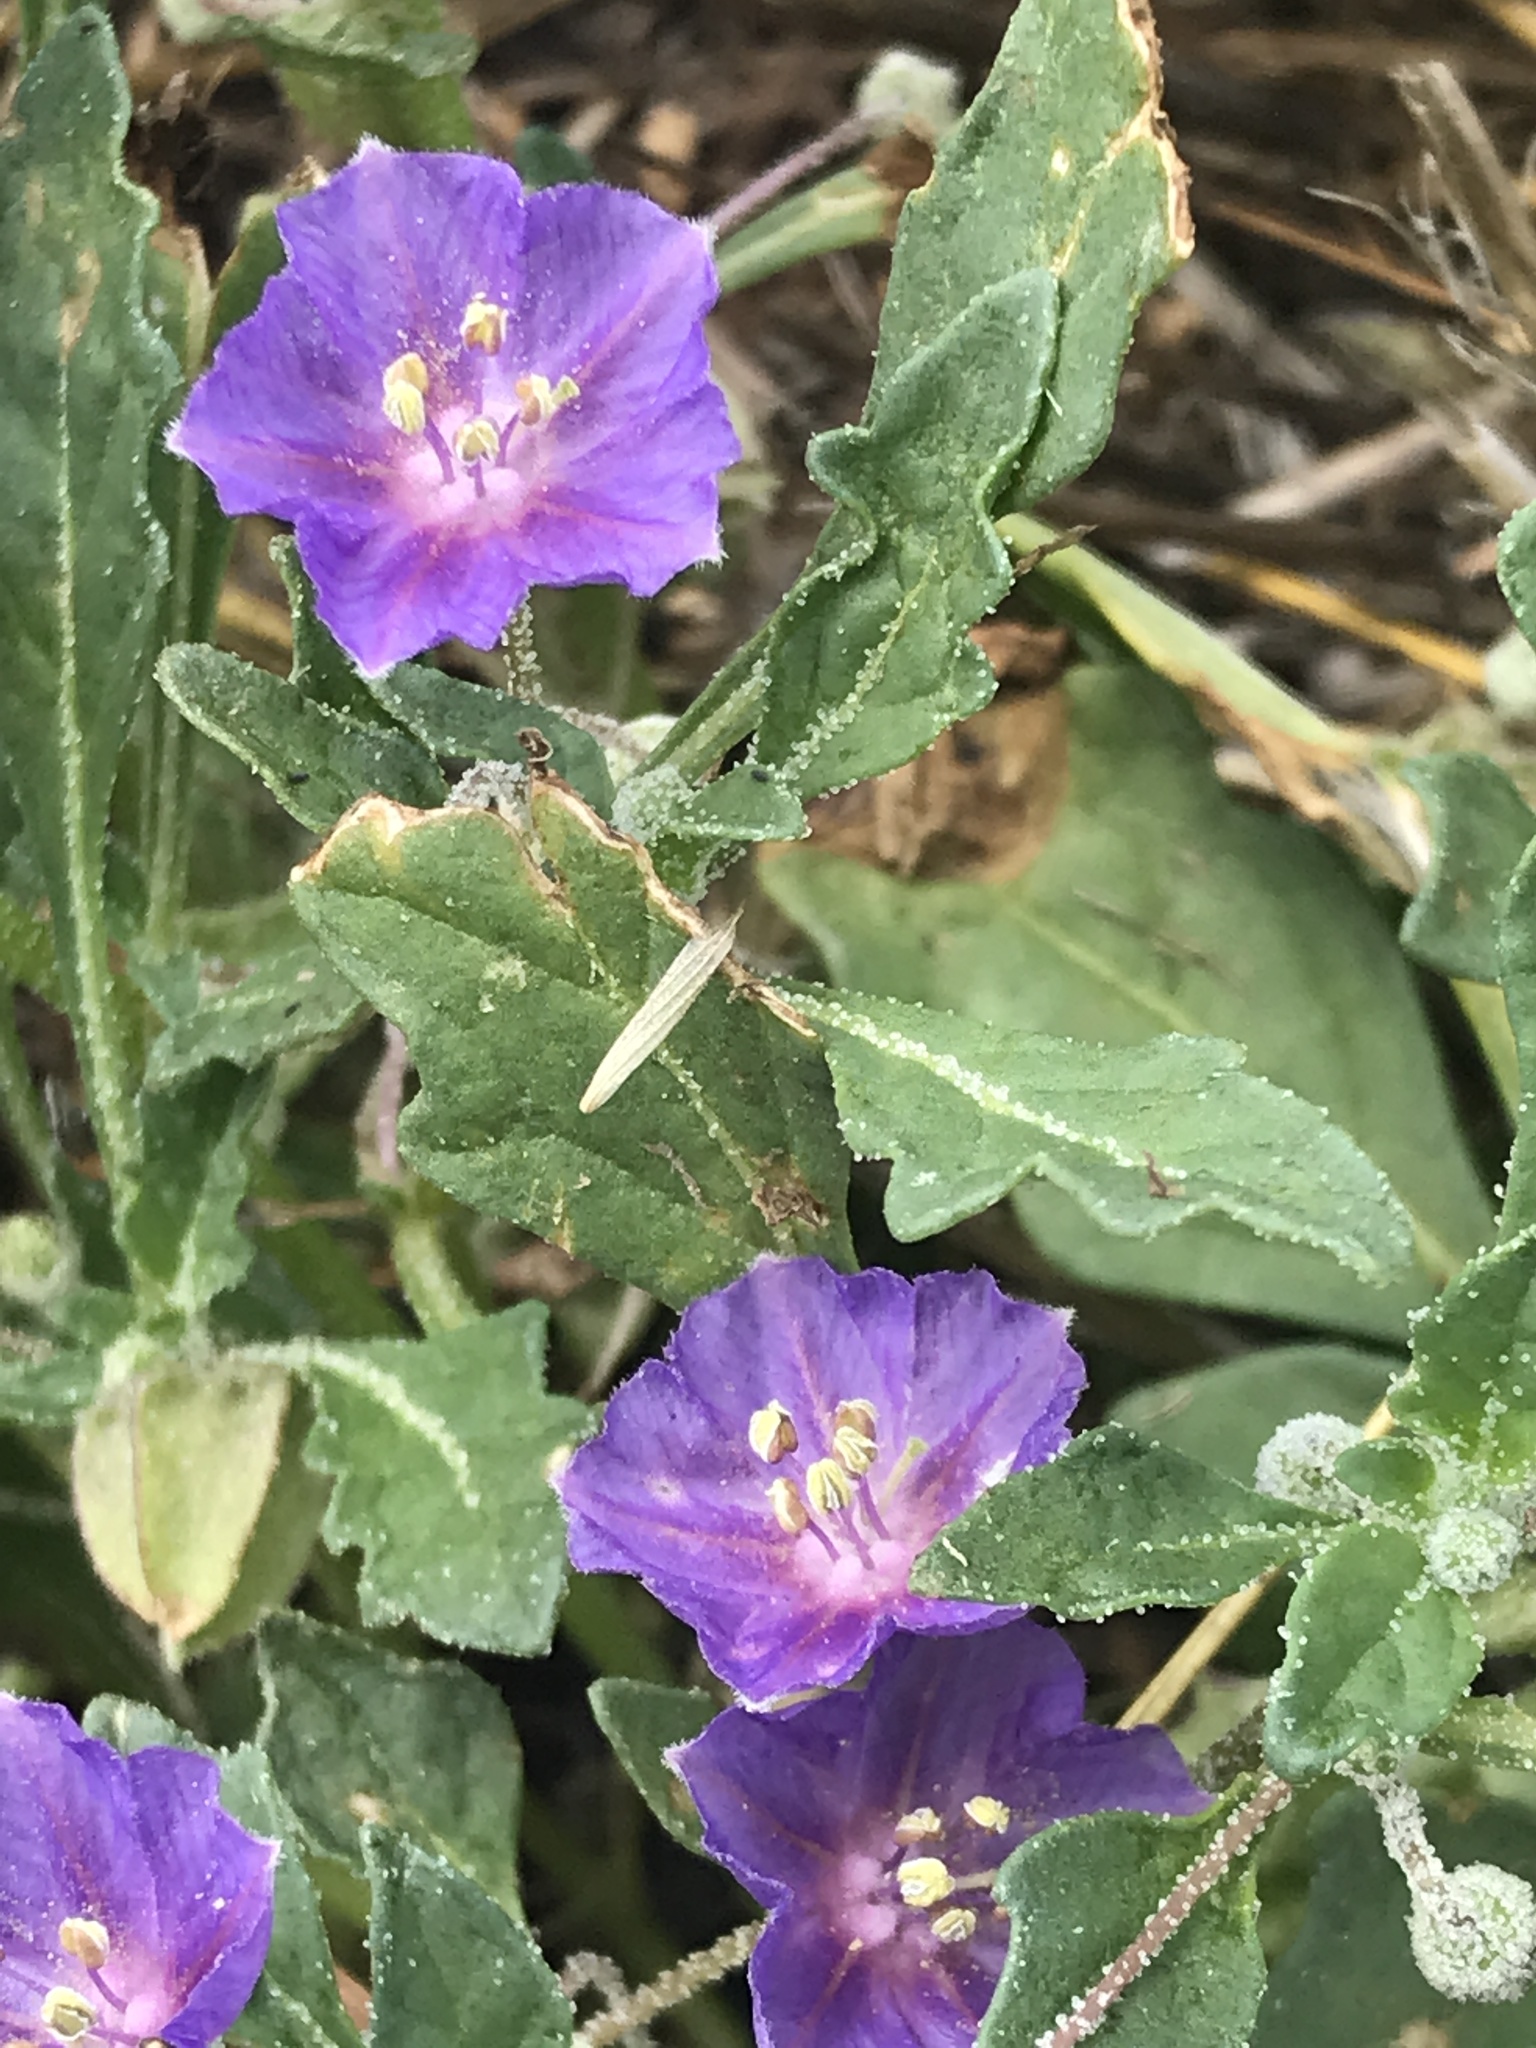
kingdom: Plantae
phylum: Tracheophyta
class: Magnoliopsida
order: Solanales
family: Solanaceae
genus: Quincula
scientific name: Quincula lobata
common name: Purple-ground-cherry
